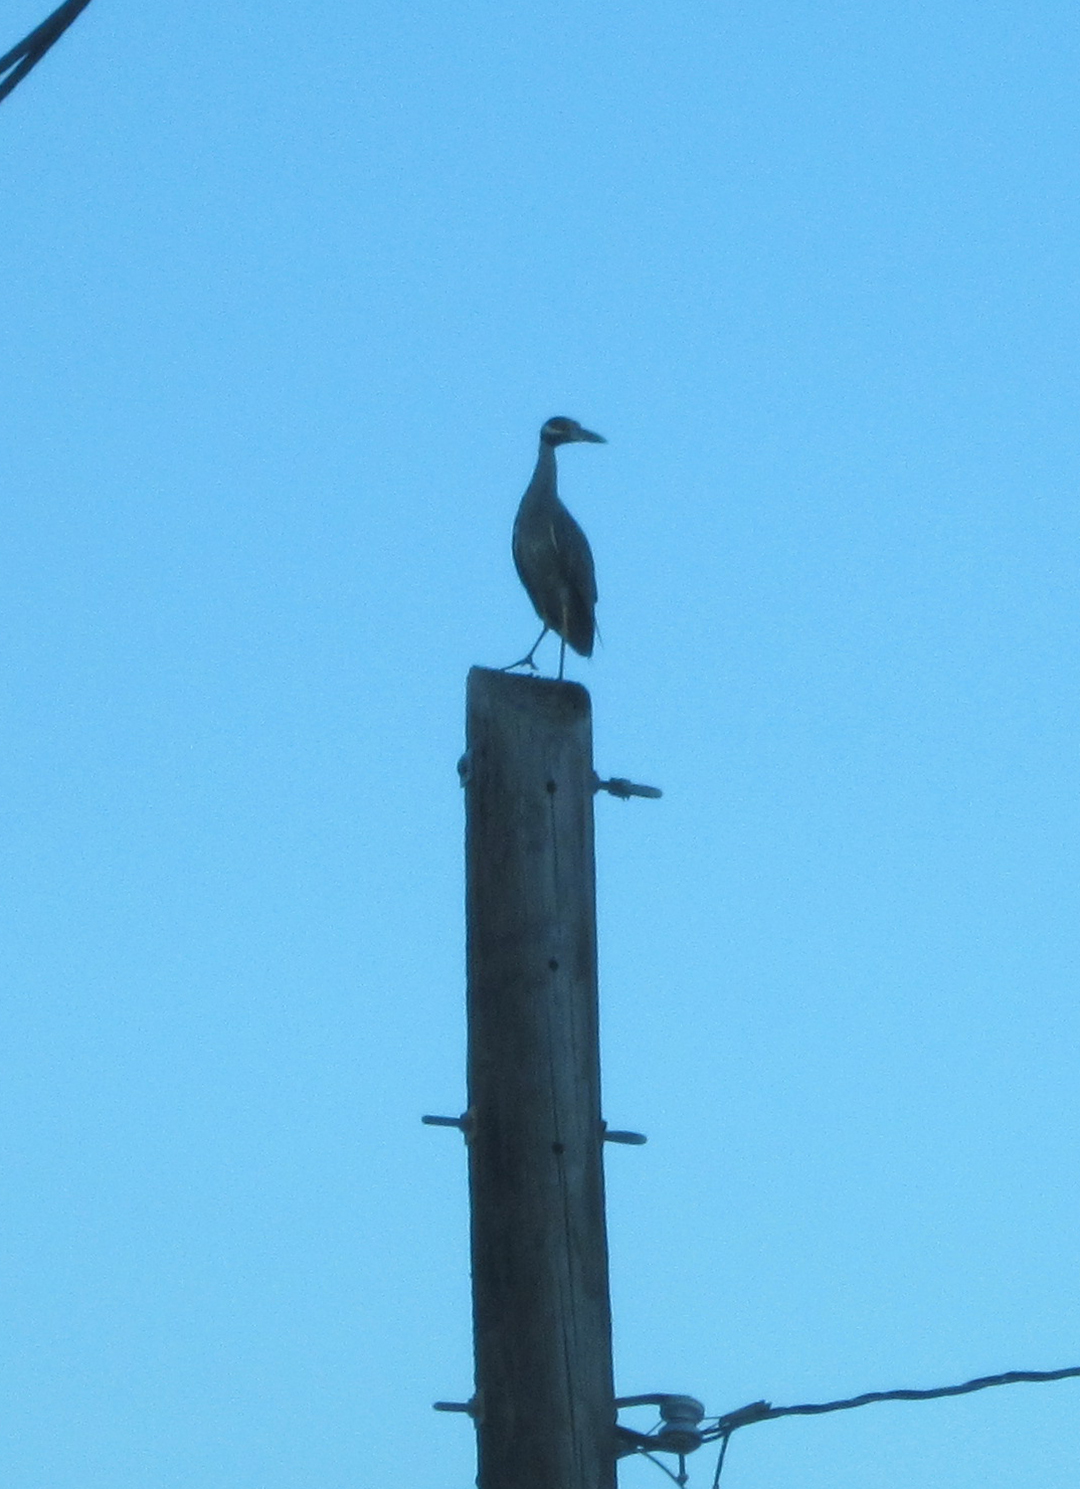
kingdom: Animalia
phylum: Chordata
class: Aves
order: Pelecaniformes
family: Ardeidae
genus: Nyctanassa
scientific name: Nyctanassa violacea
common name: Yellow-crowned night heron
